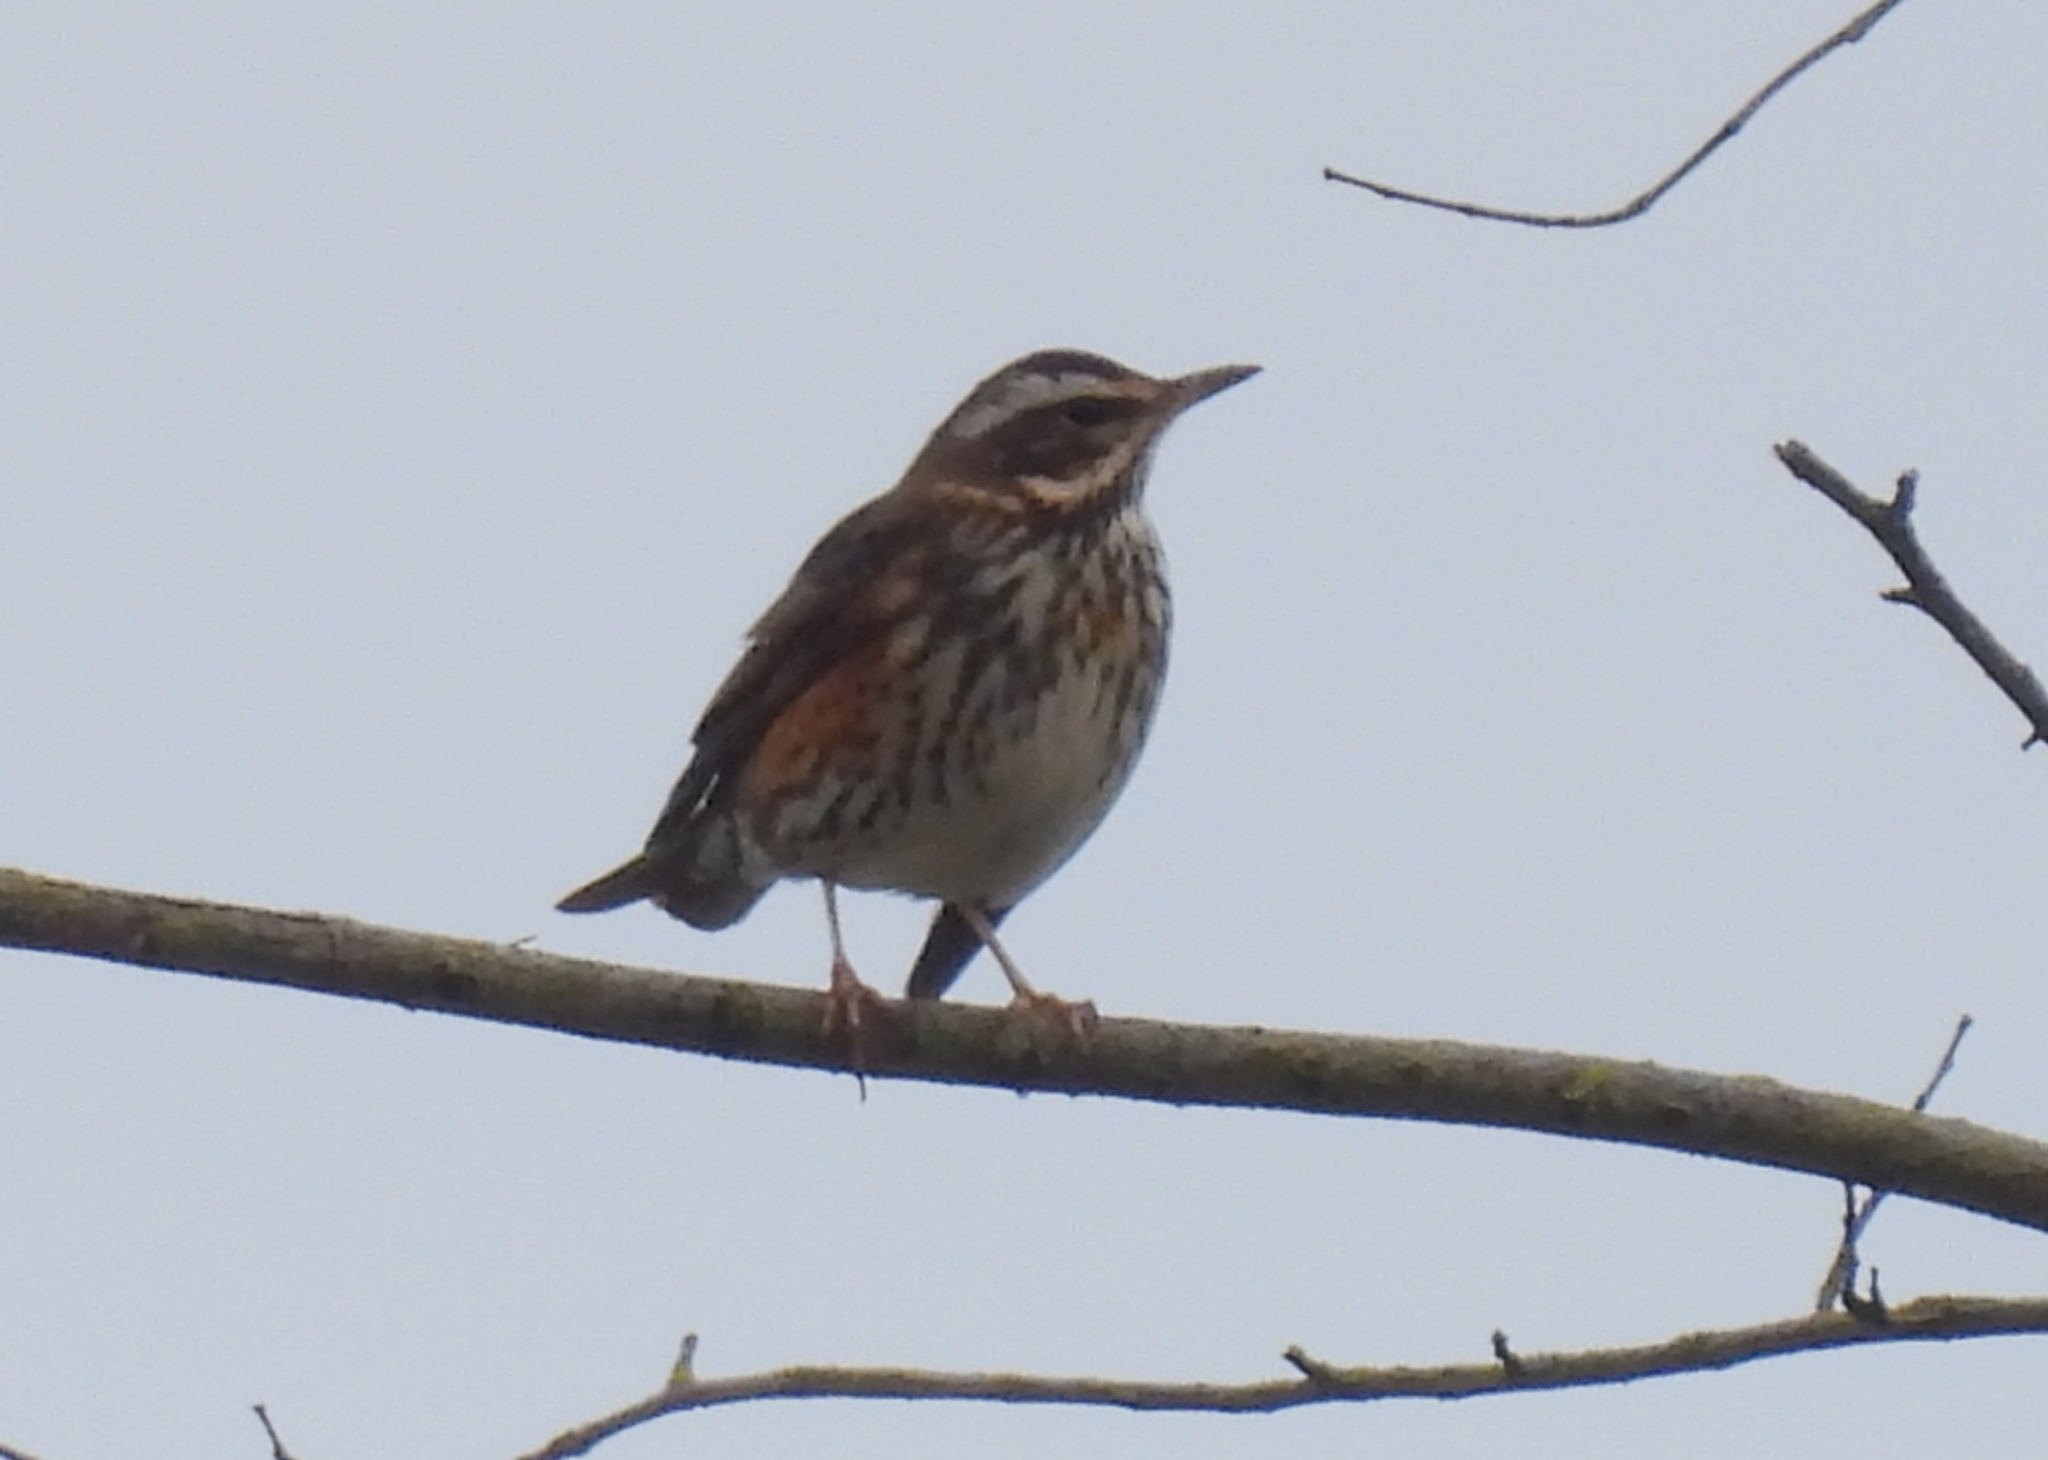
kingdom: Animalia
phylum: Chordata
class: Aves
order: Passeriformes
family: Turdidae
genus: Turdus
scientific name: Turdus iliacus
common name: Redwing
